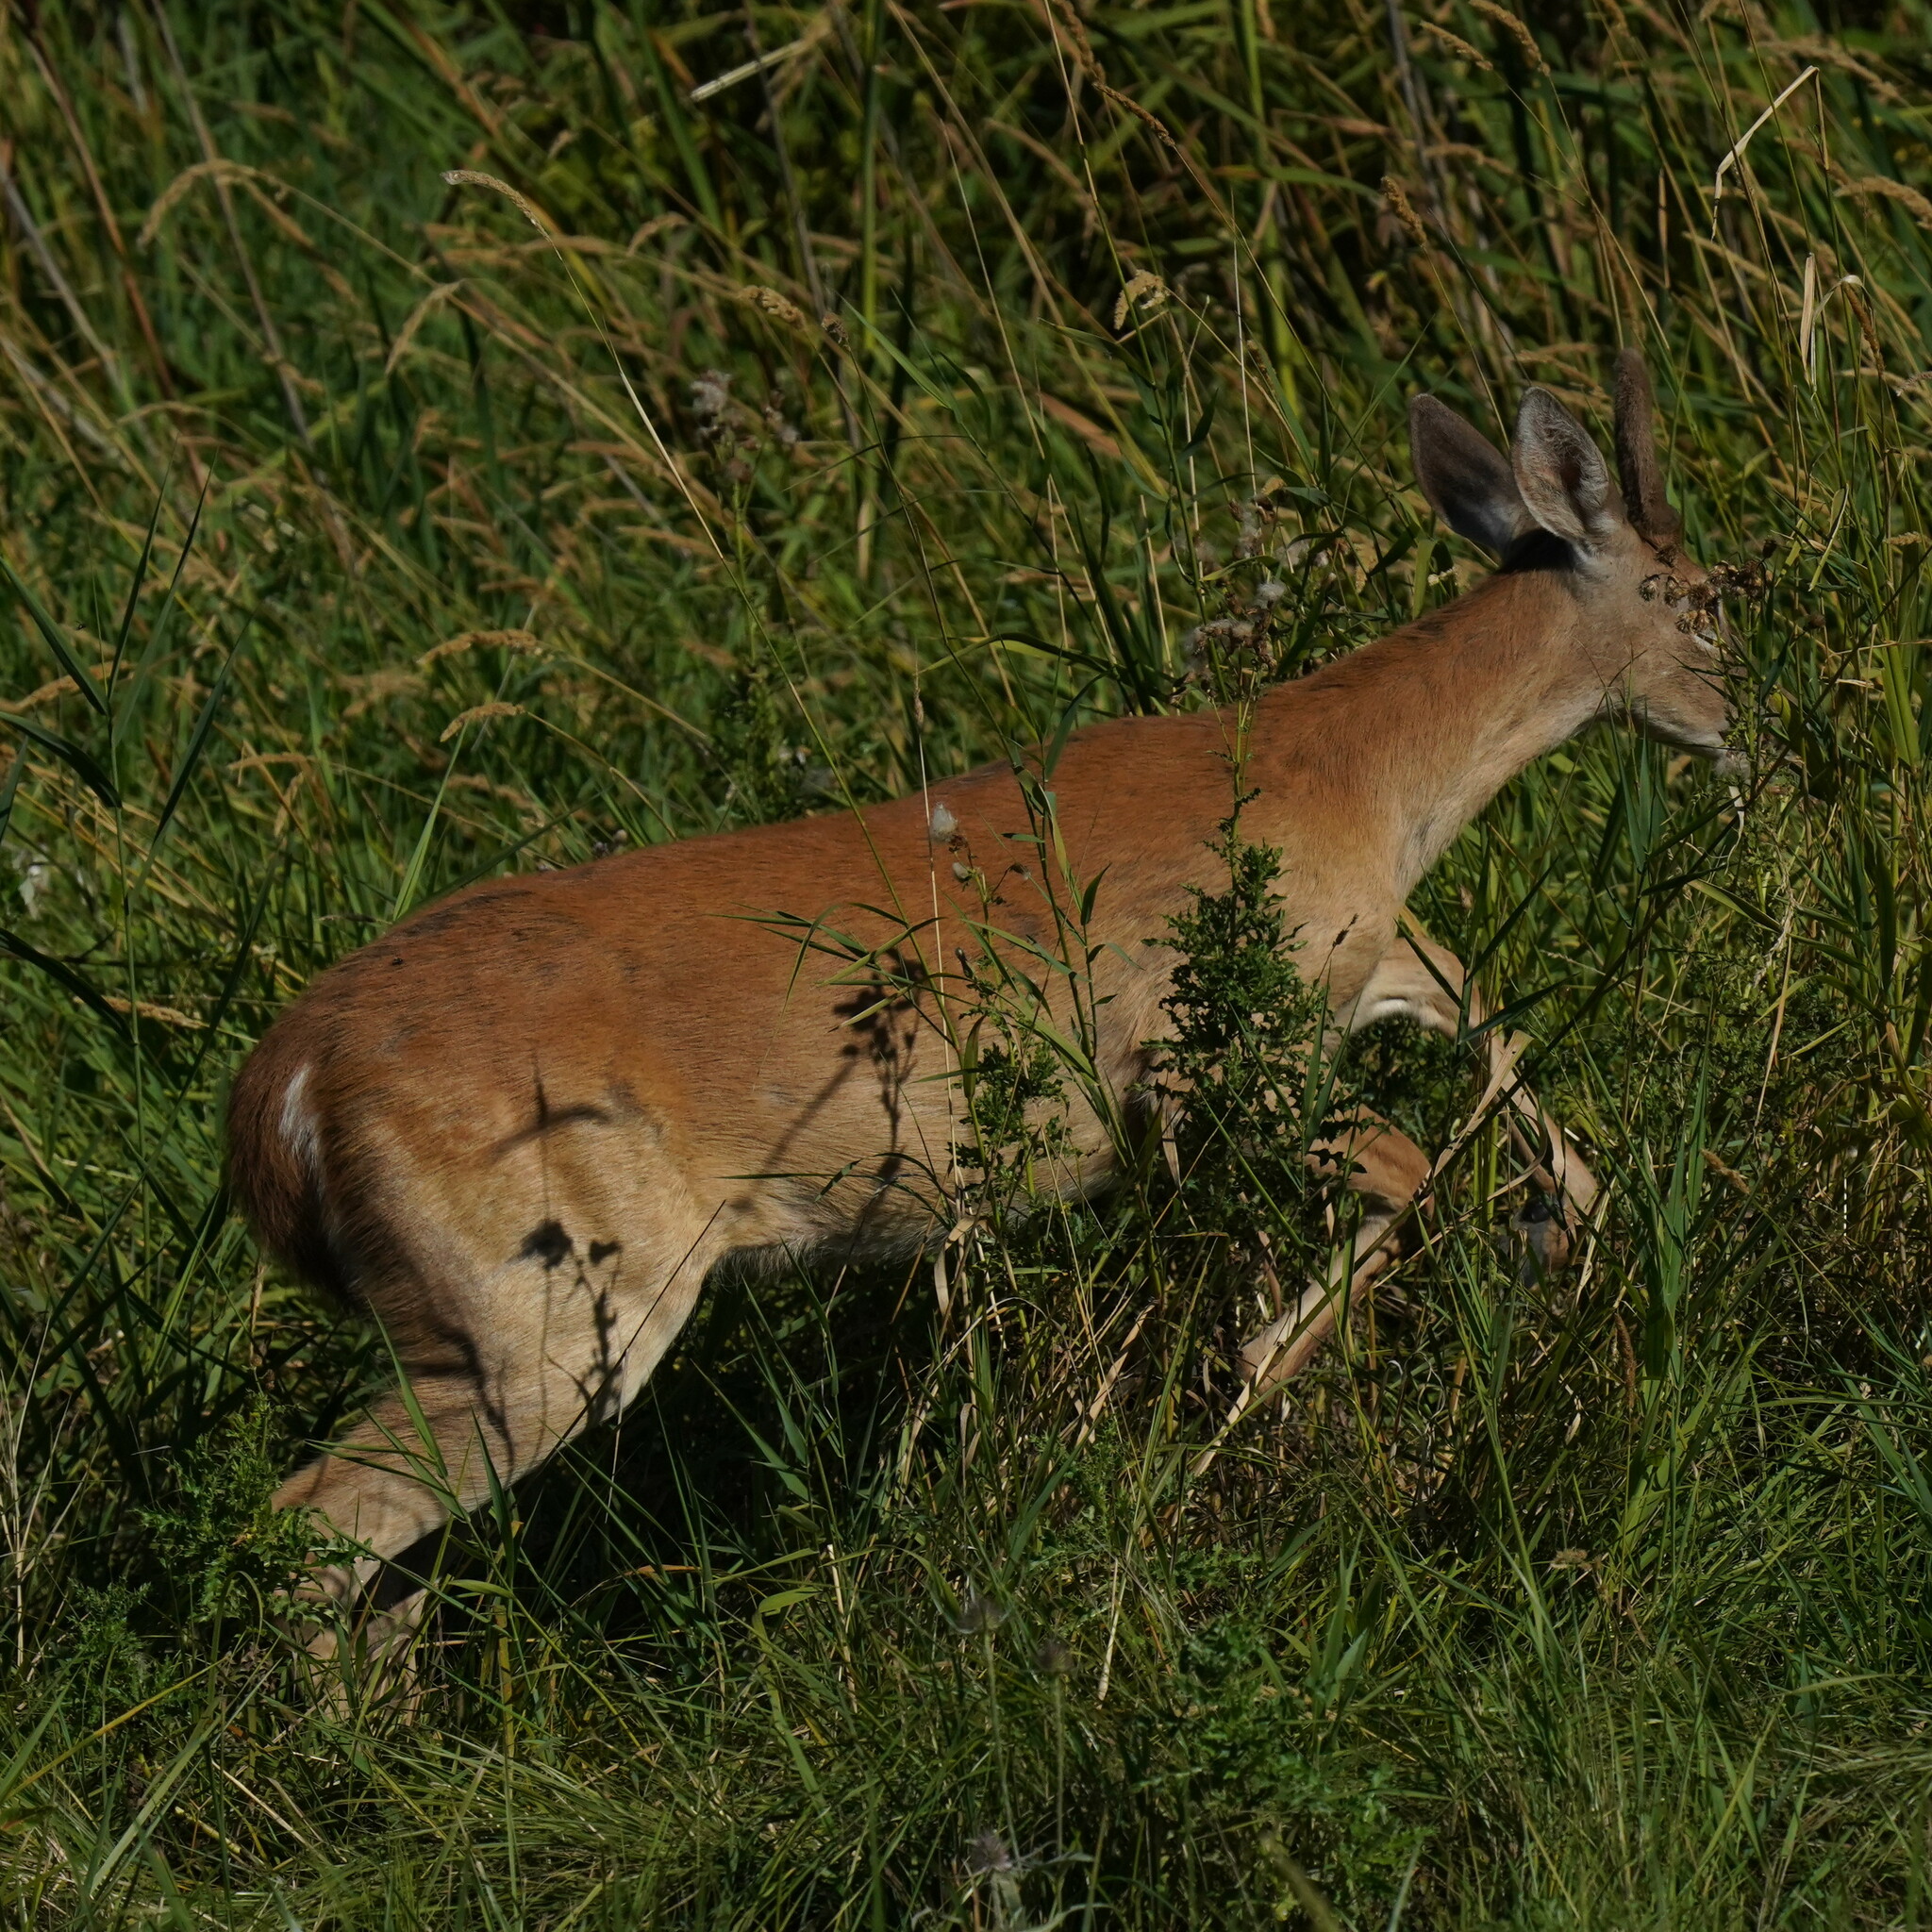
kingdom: Animalia
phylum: Chordata
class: Mammalia
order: Artiodactyla
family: Cervidae
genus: Odocoileus
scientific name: Odocoileus virginianus
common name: White-tailed deer
